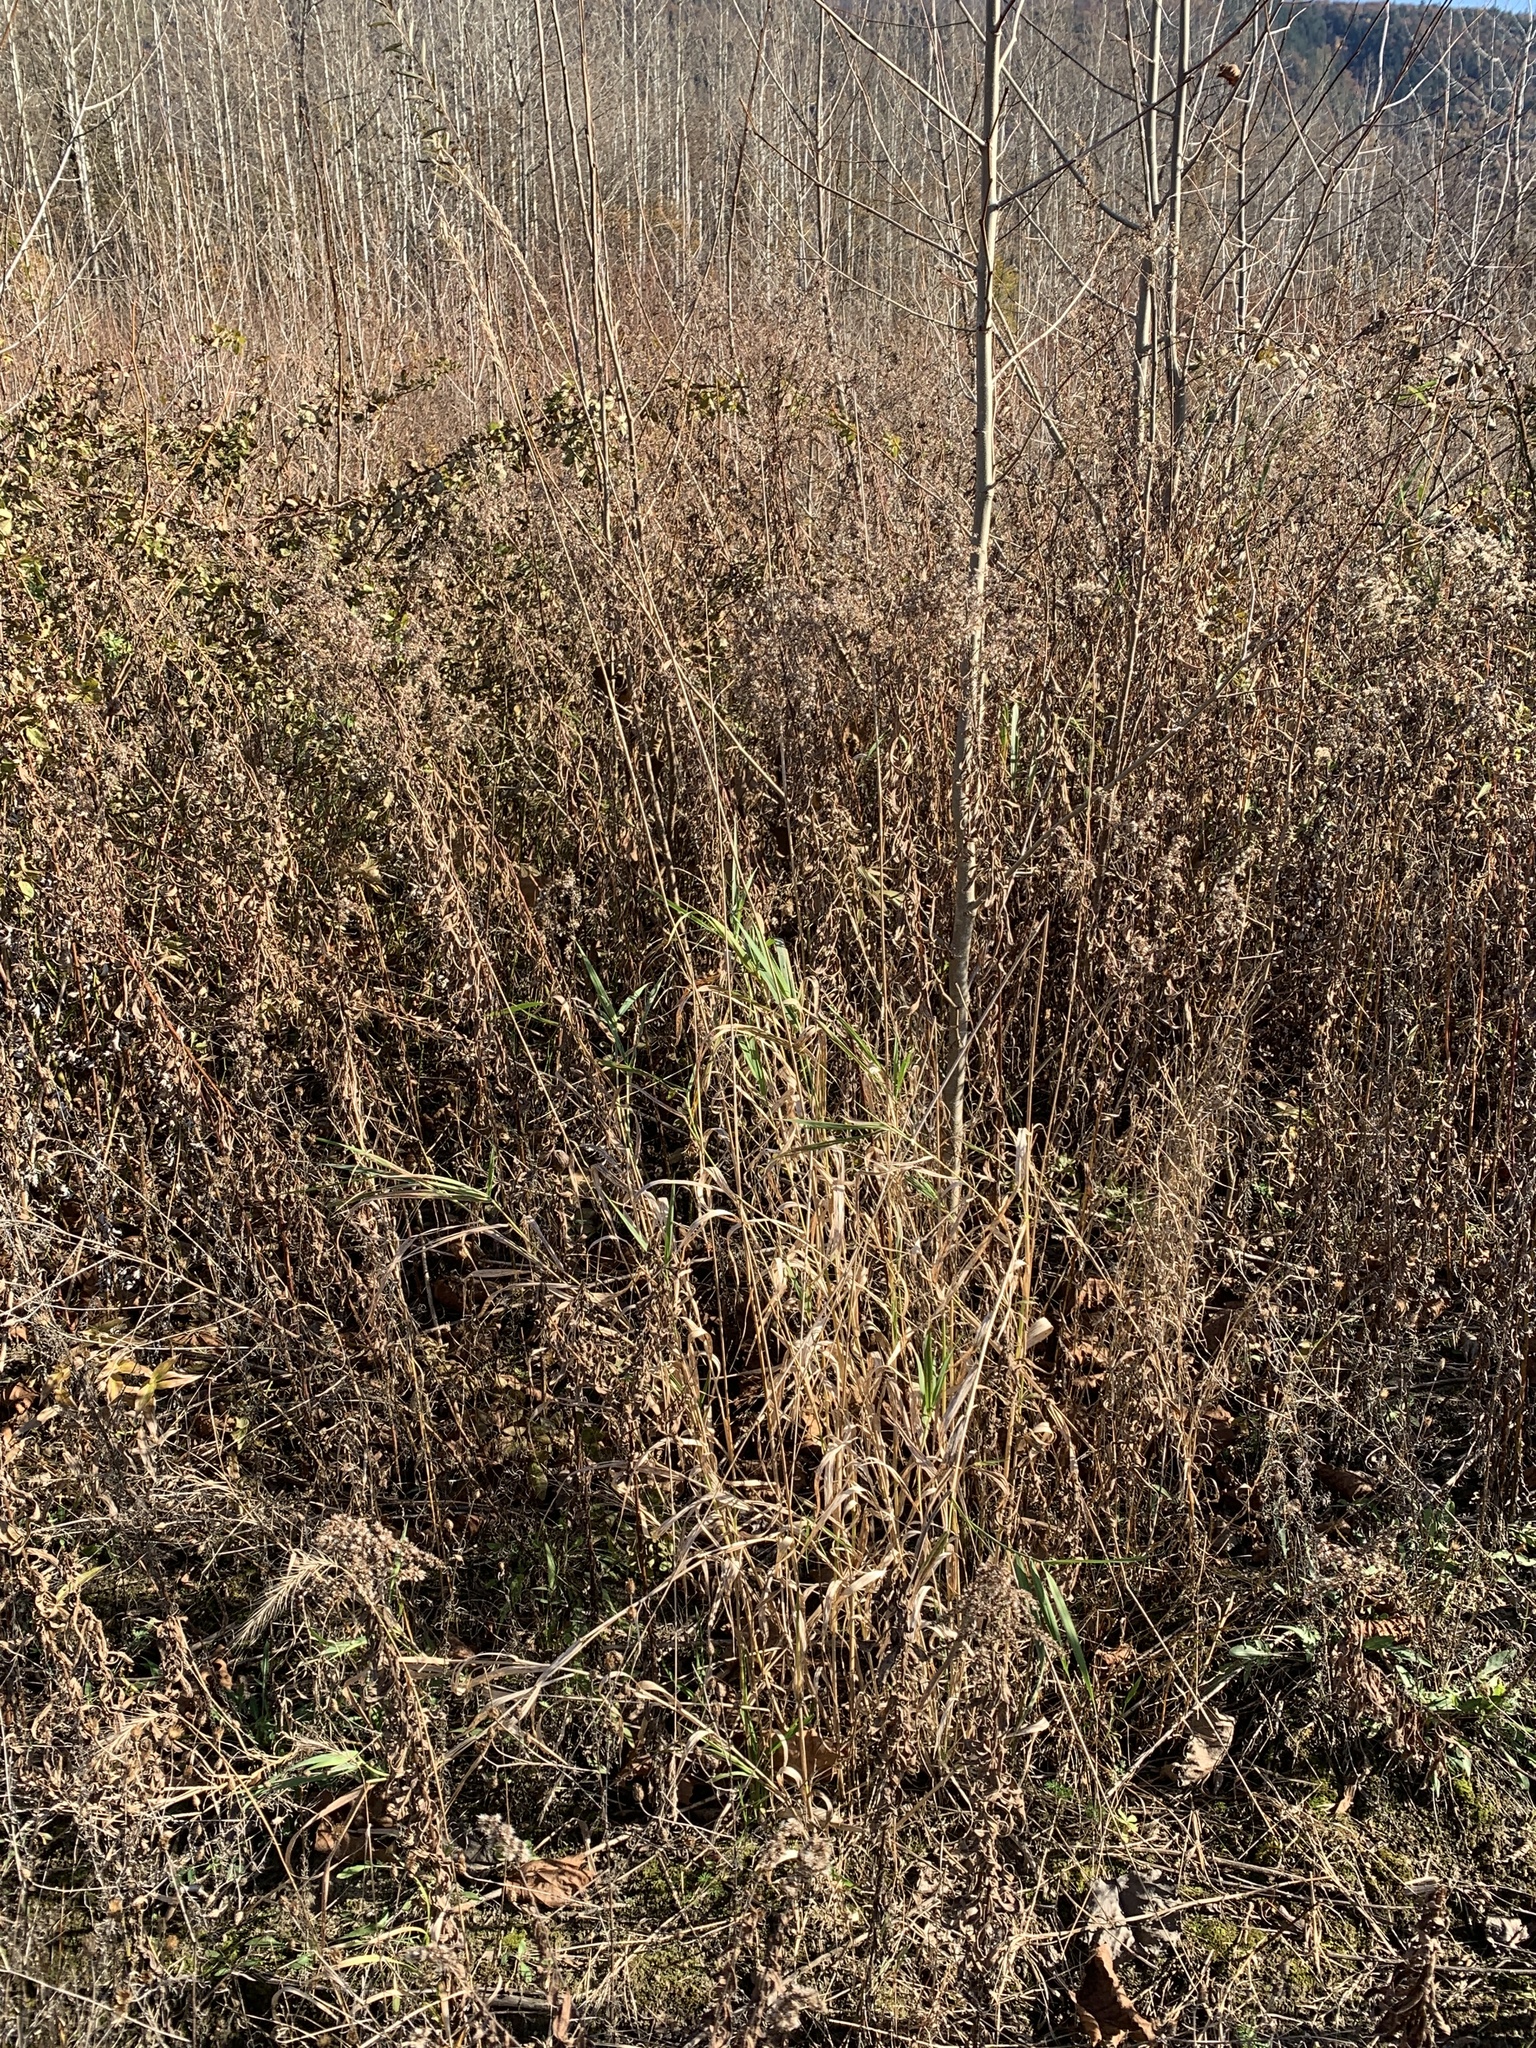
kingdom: Plantae
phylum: Tracheophyta
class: Liliopsida
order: Poales
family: Poaceae
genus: Phalaris
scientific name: Phalaris arundinacea
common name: Reed canary-grass
